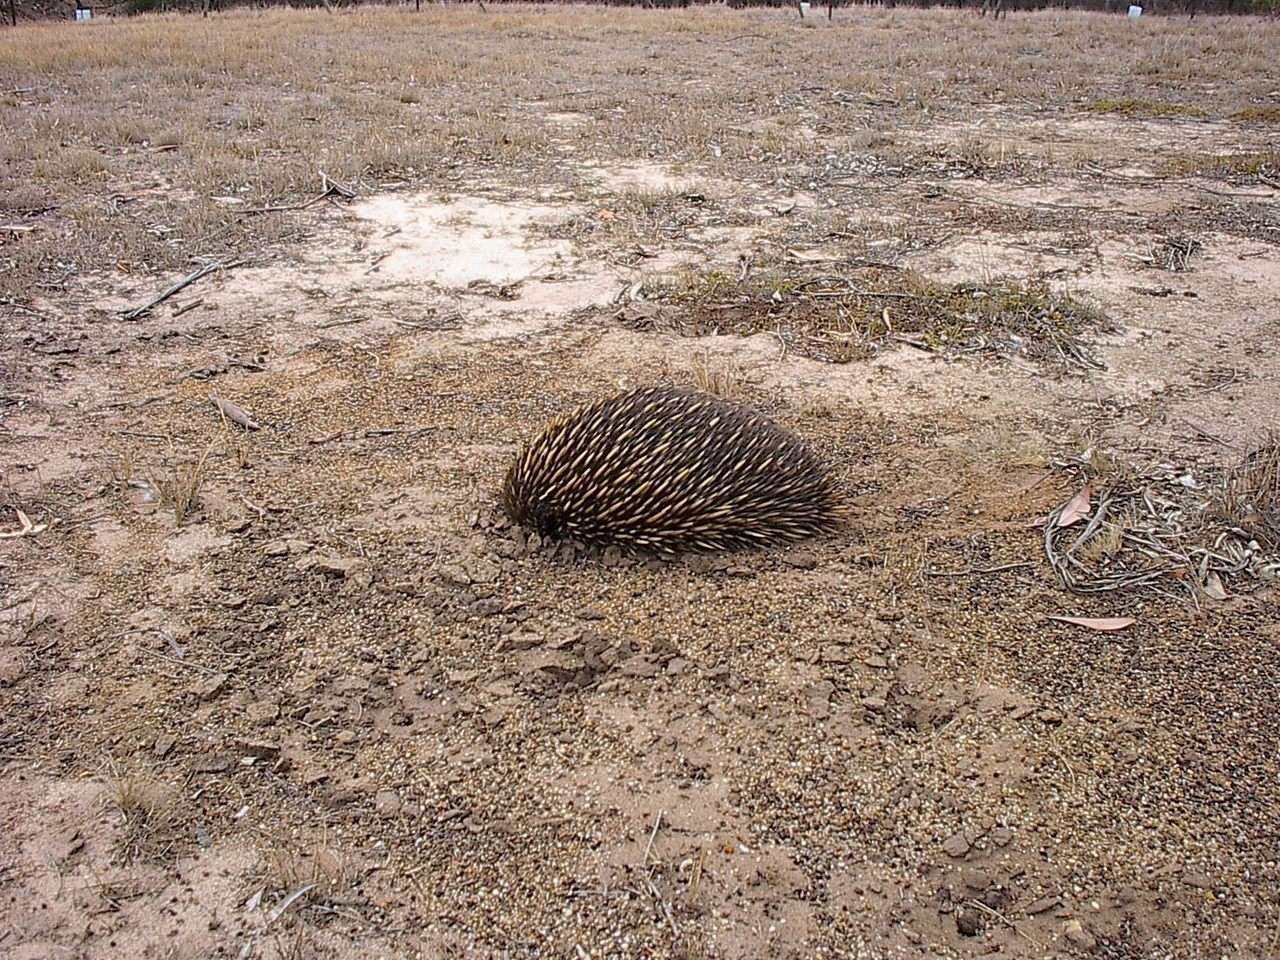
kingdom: Animalia
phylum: Chordata
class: Mammalia
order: Monotremata
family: Tachyglossidae
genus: Tachyglossus
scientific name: Tachyglossus aculeatus
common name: Short-beaked echidna
